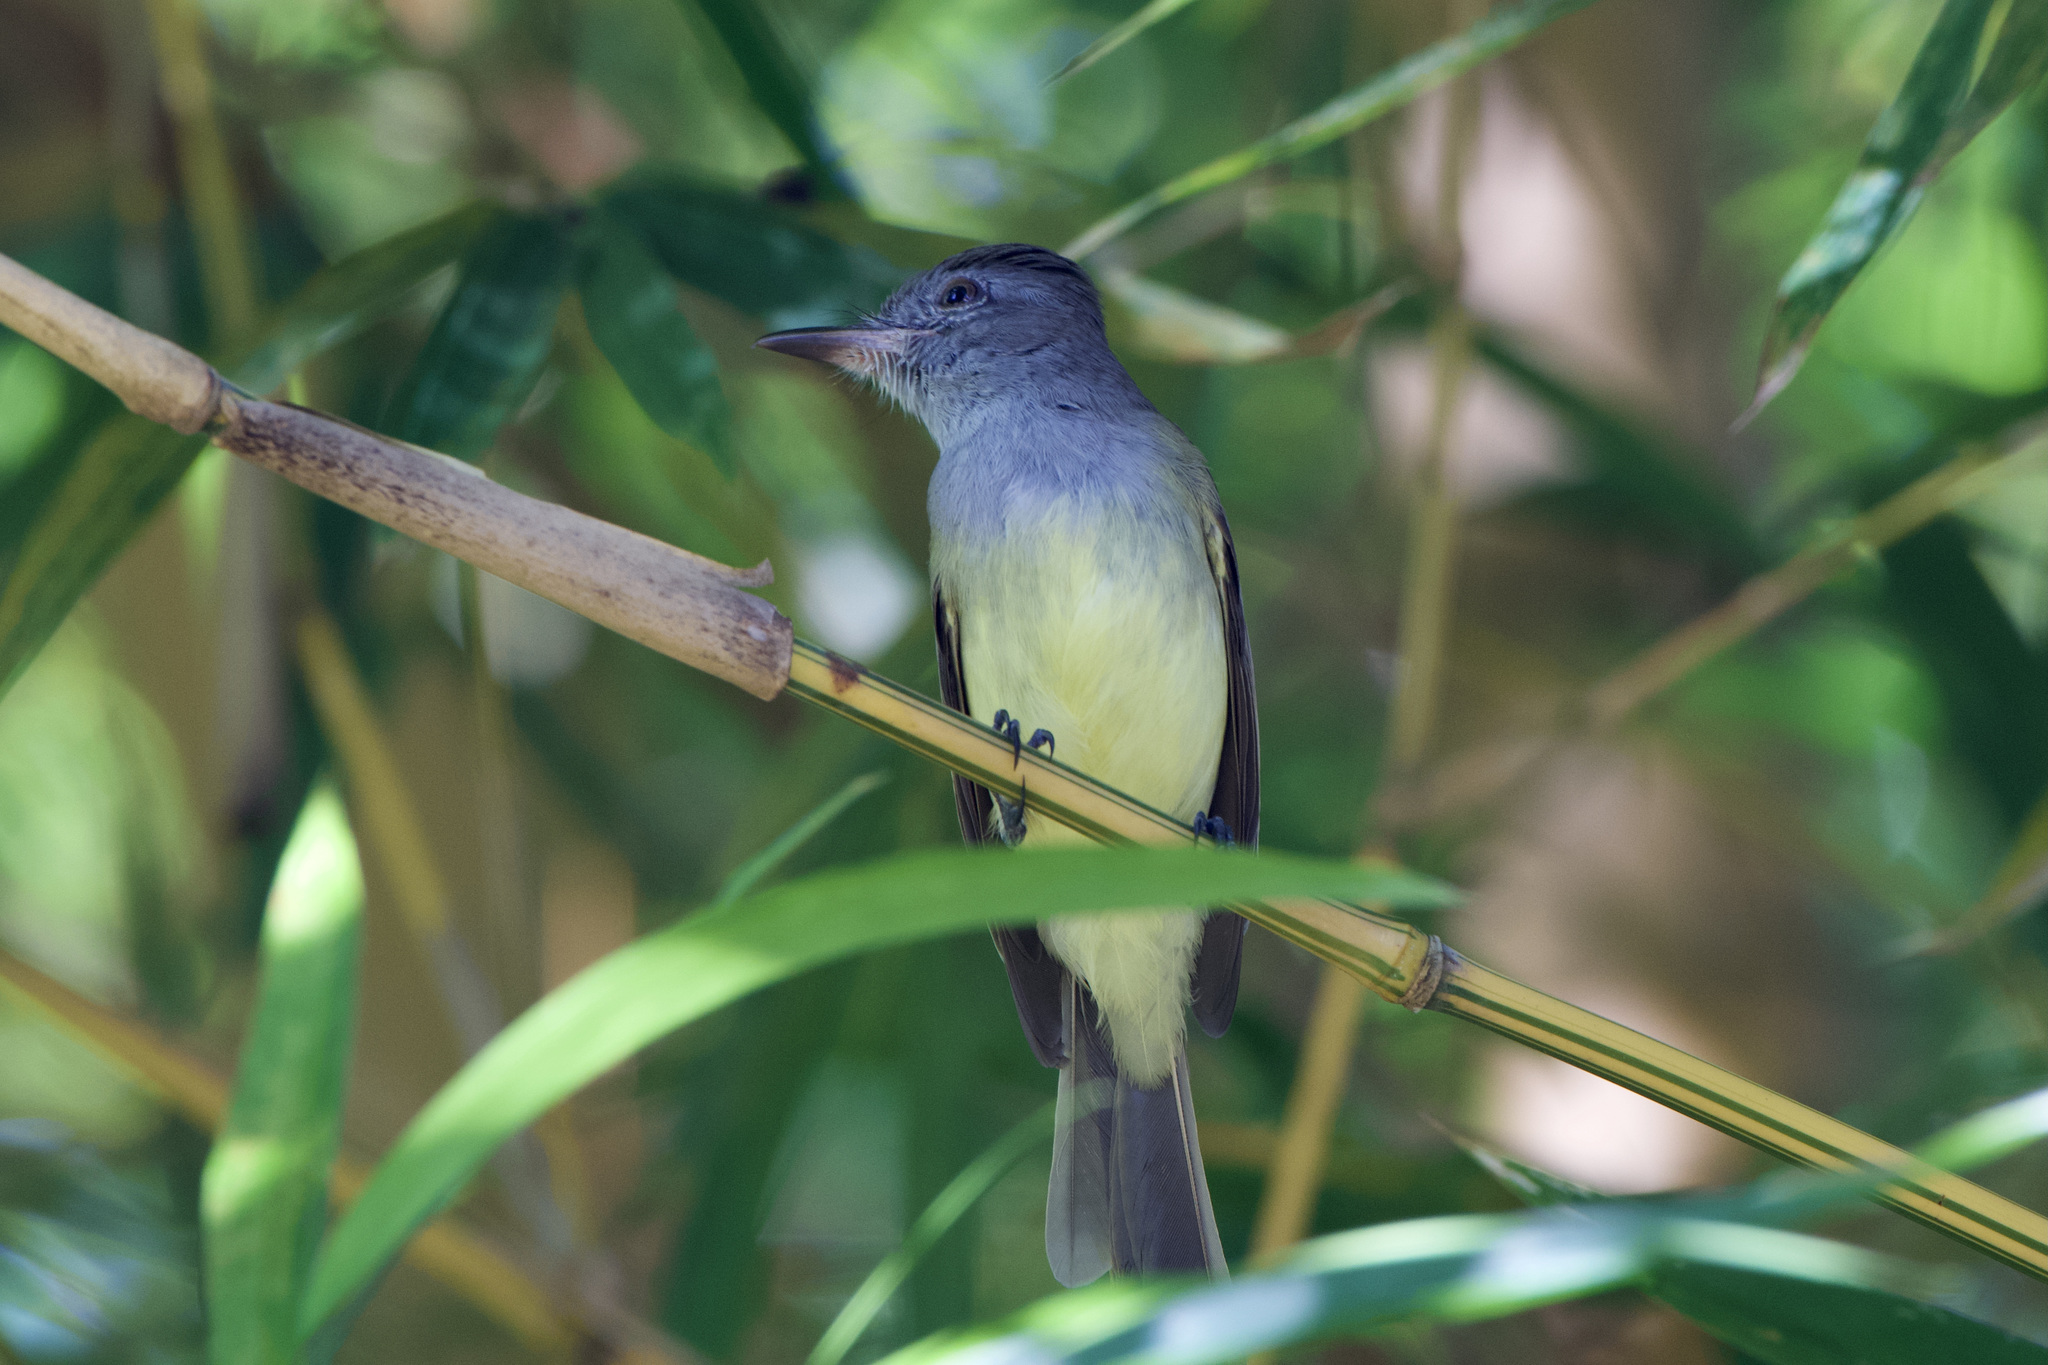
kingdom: Animalia
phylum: Chordata
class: Aves
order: Passeriformes
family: Tyrannidae
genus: Myiarchus
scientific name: Myiarchus panamensis
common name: Panama flycatcher
